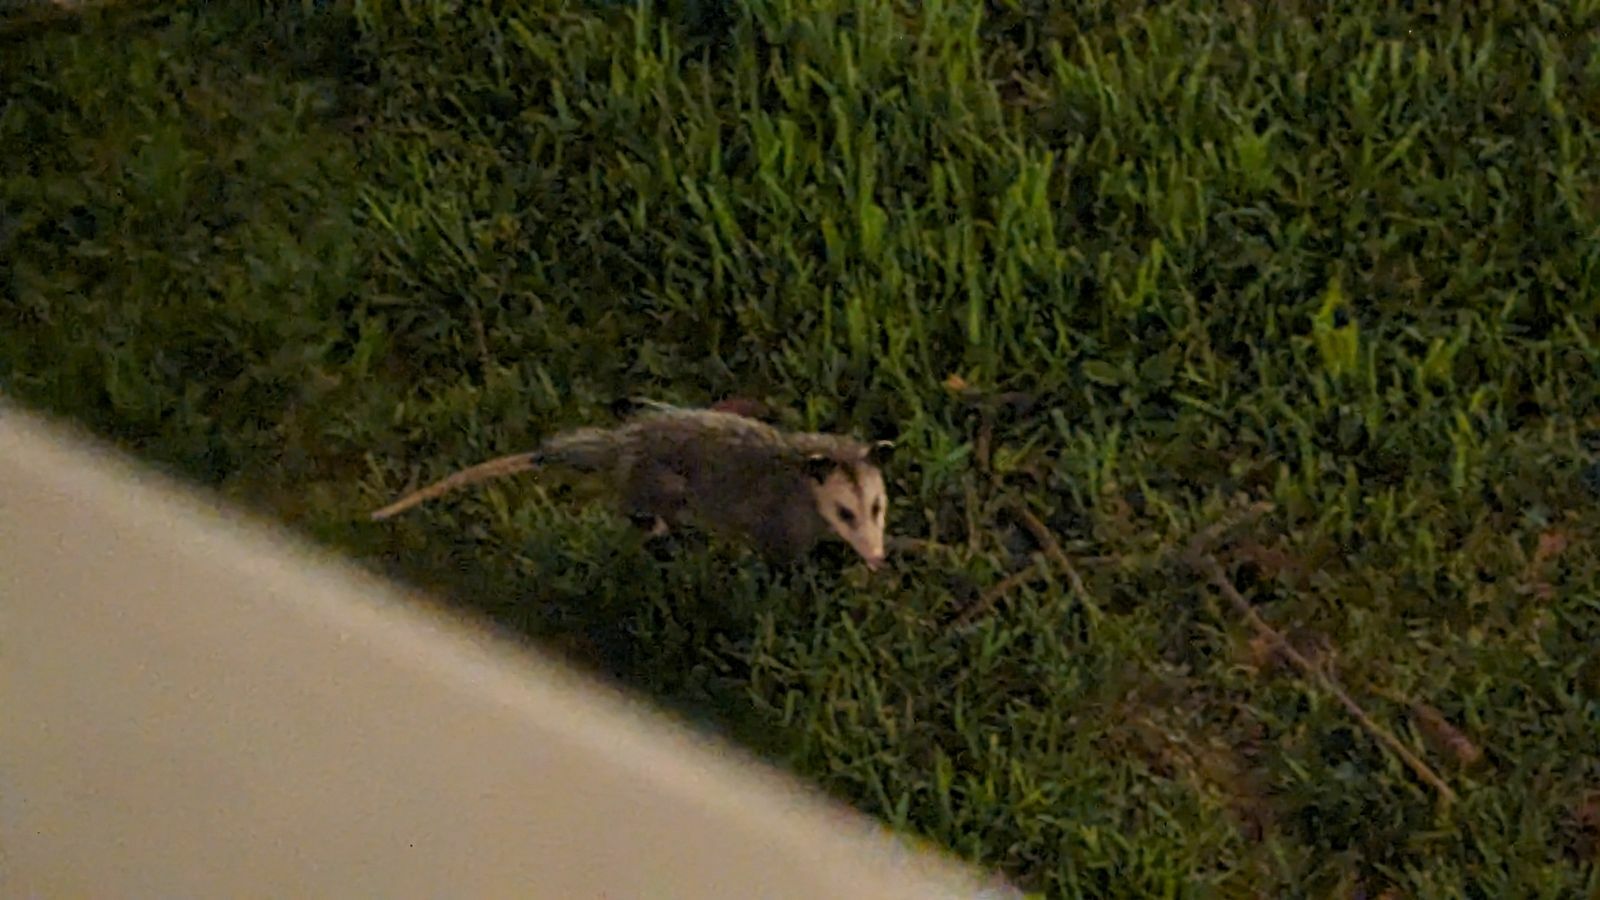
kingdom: Animalia
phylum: Chordata
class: Mammalia
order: Didelphimorphia
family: Didelphidae
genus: Didelphis
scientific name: Didelphis virginiana
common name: Virginia opossum
